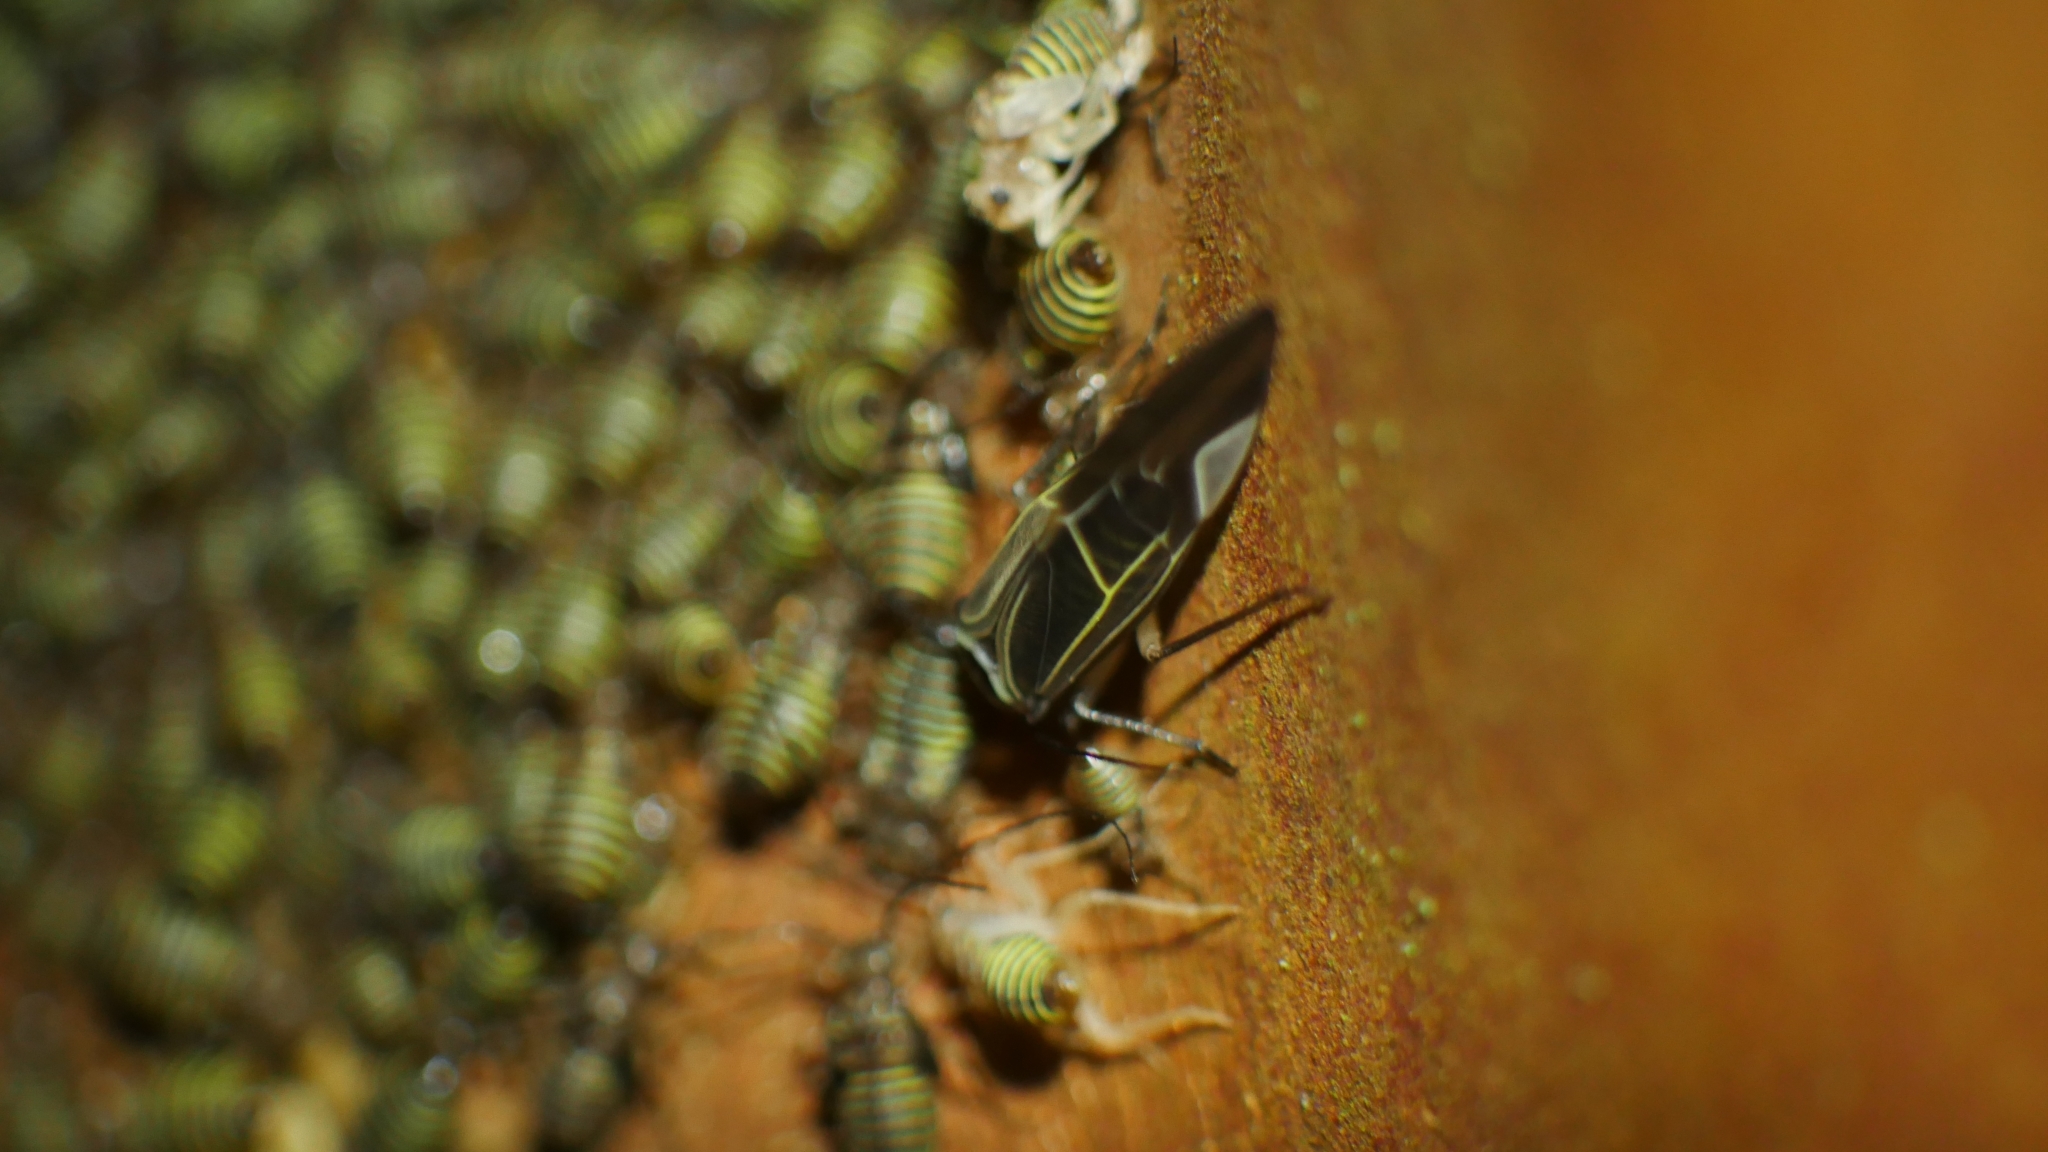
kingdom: Animalia
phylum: Arthropoda
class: Insecta
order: Psocodea
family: Psocidae
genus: Cerastipsocus
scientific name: Cerastipsocus venosus
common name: Tree cattle
